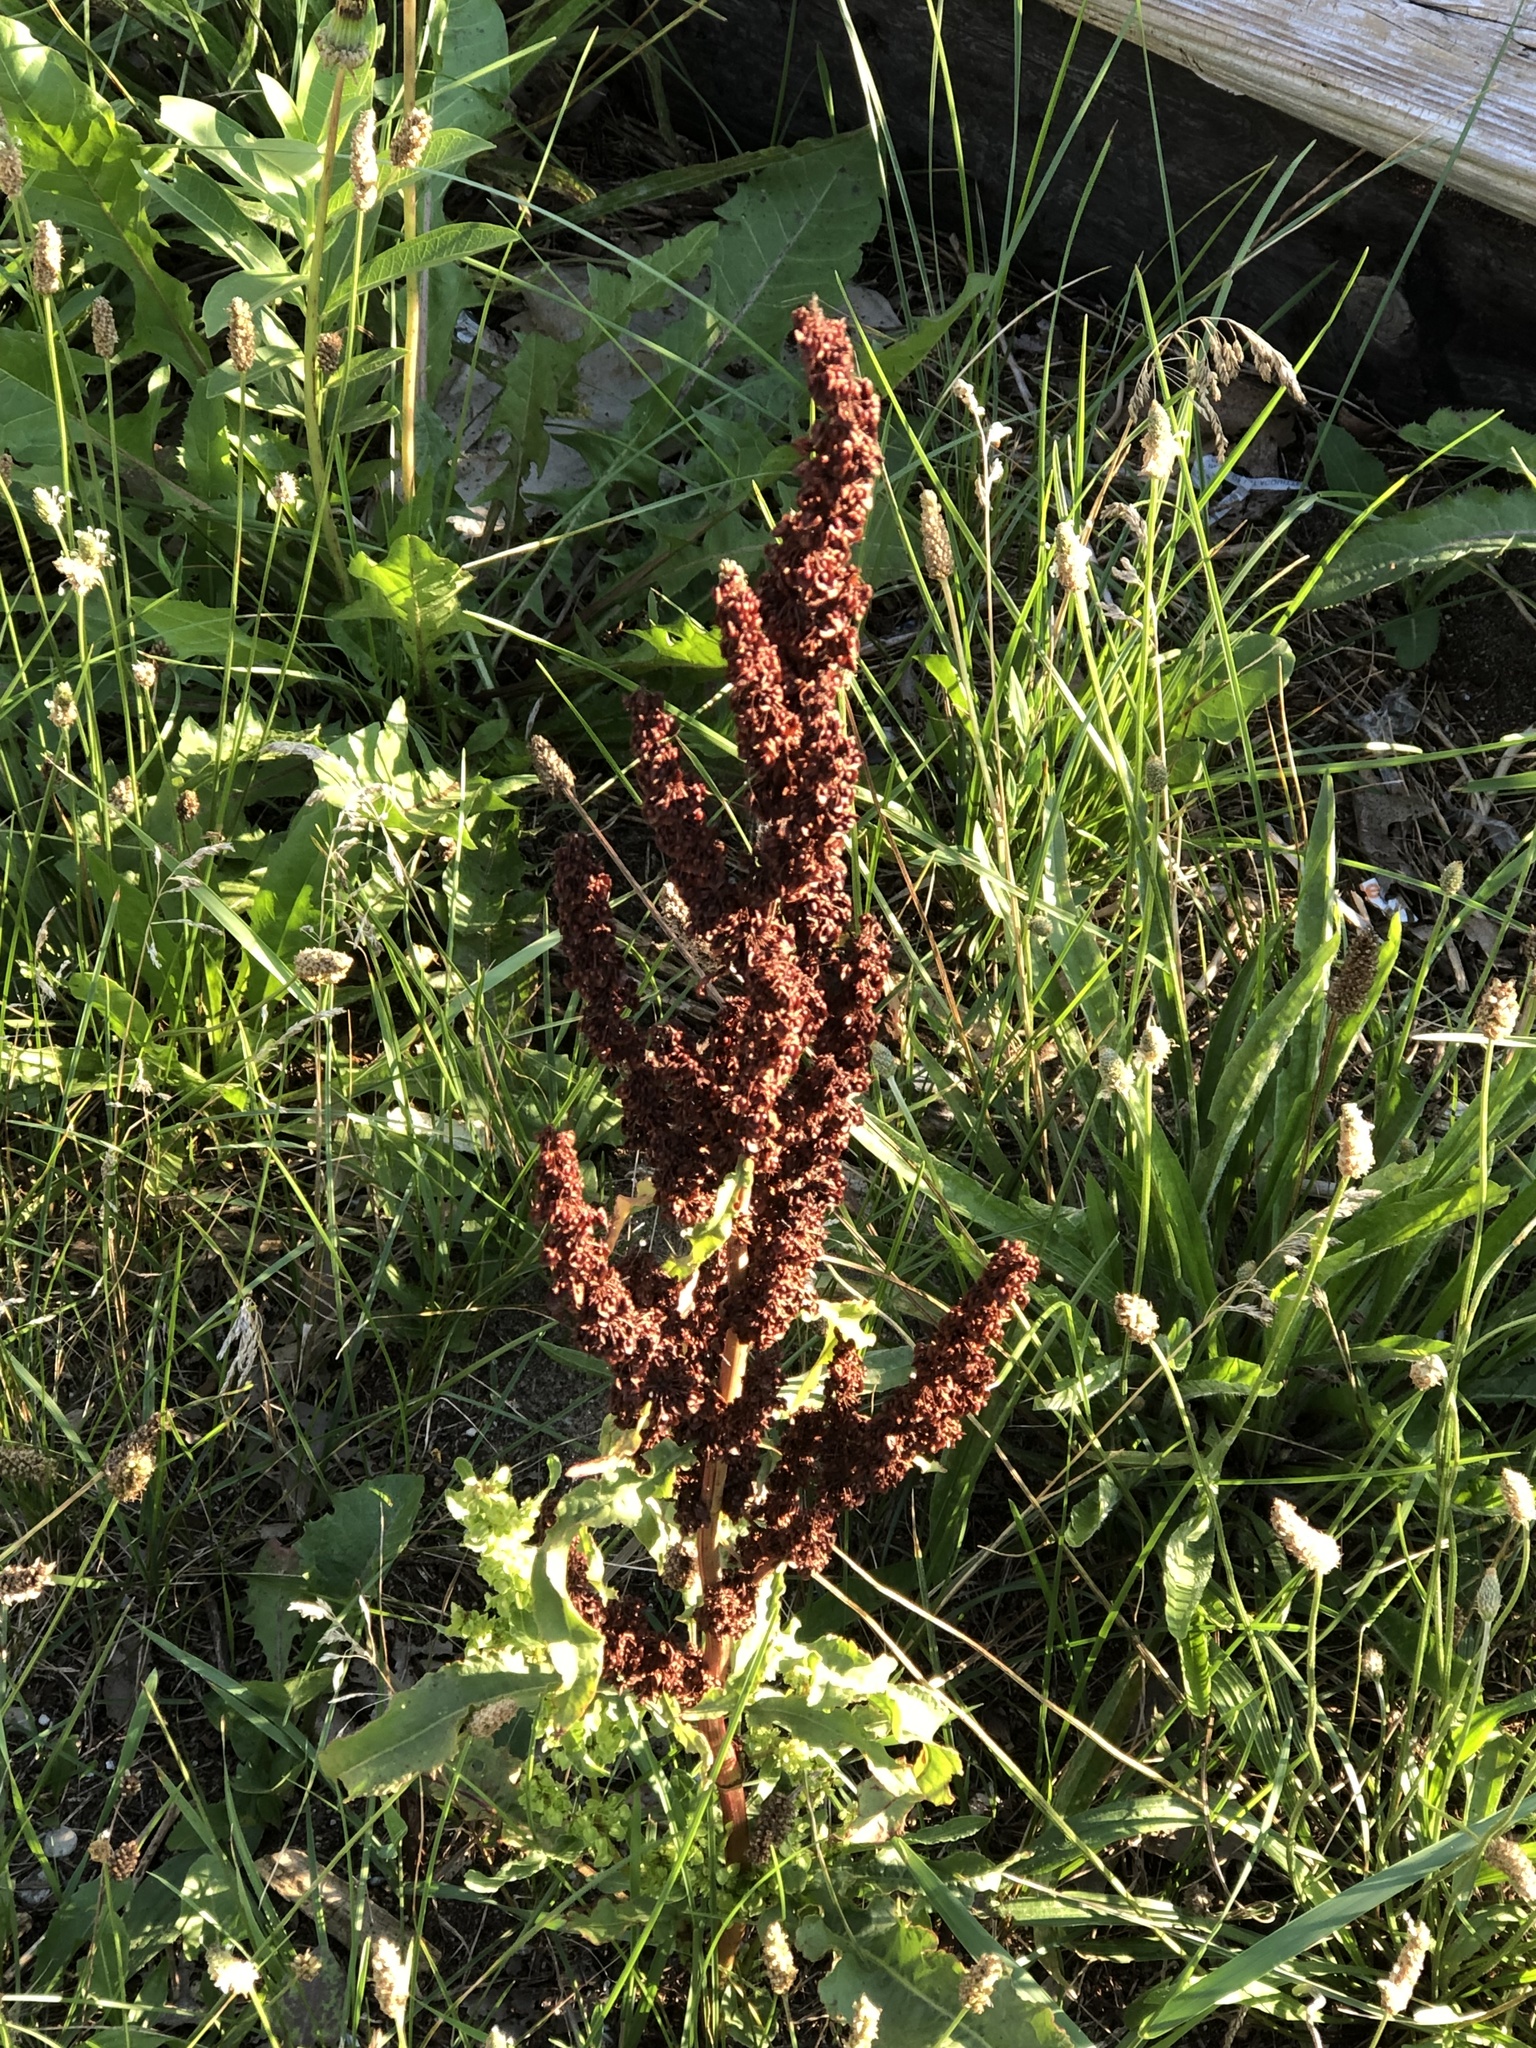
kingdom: Plantae
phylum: Tracheophyta
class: Magnoliopsida
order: Caryophyllales
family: Polygonaceae
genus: Rumex
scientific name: Rumex crispus
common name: Curled dock
